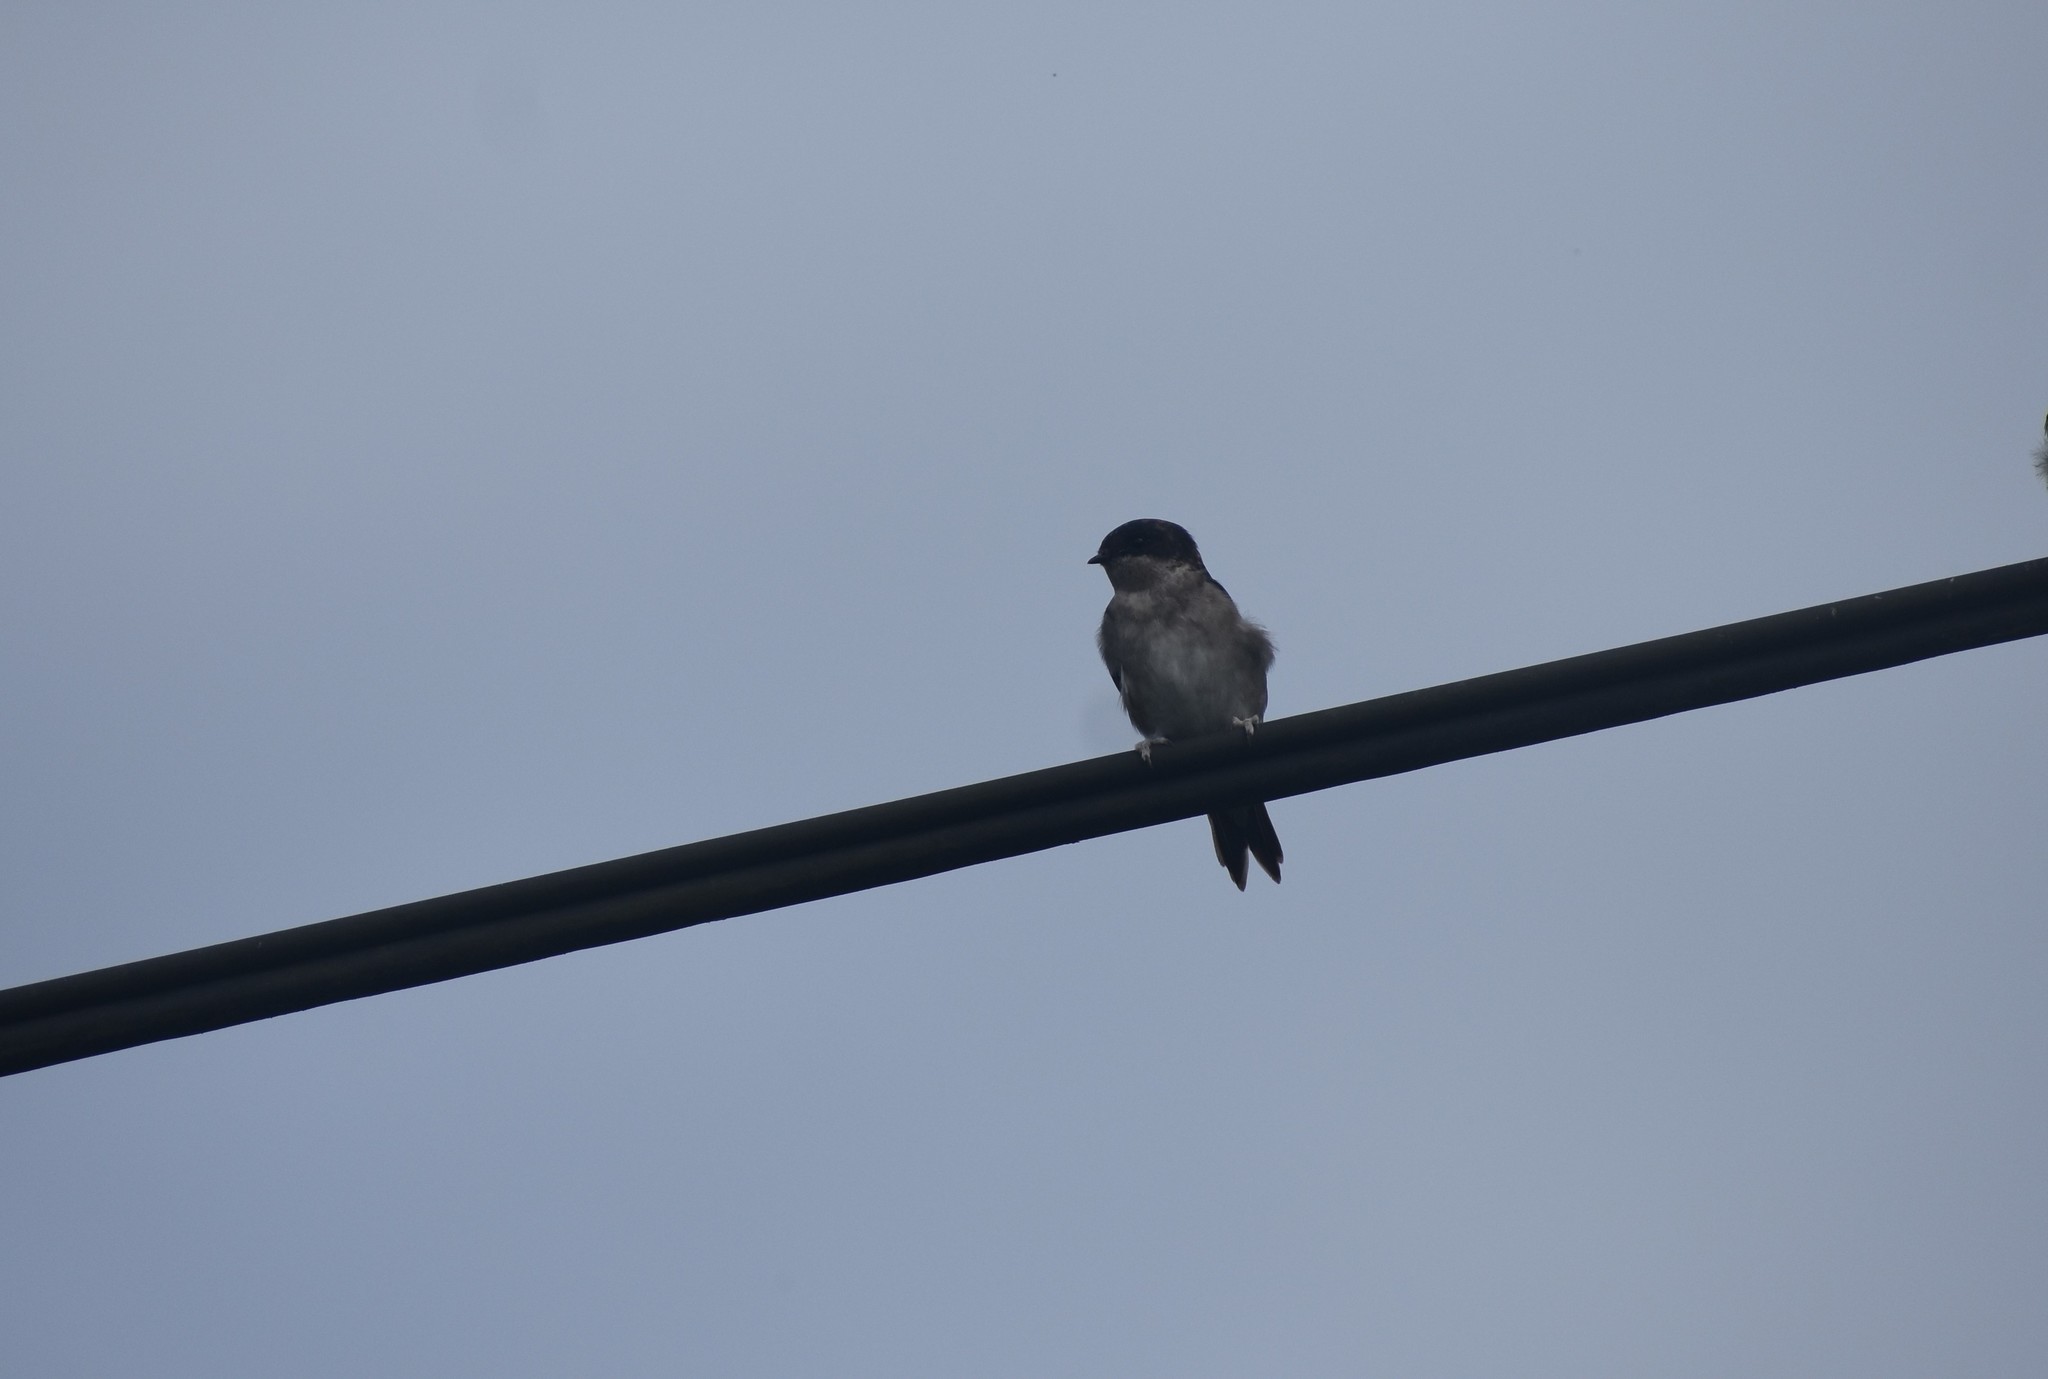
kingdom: Animalia
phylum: Chordata
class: Aves
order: Passeriformes
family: Hirundinidae
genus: Delichon
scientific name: Delichon urbicum
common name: Common house martin
